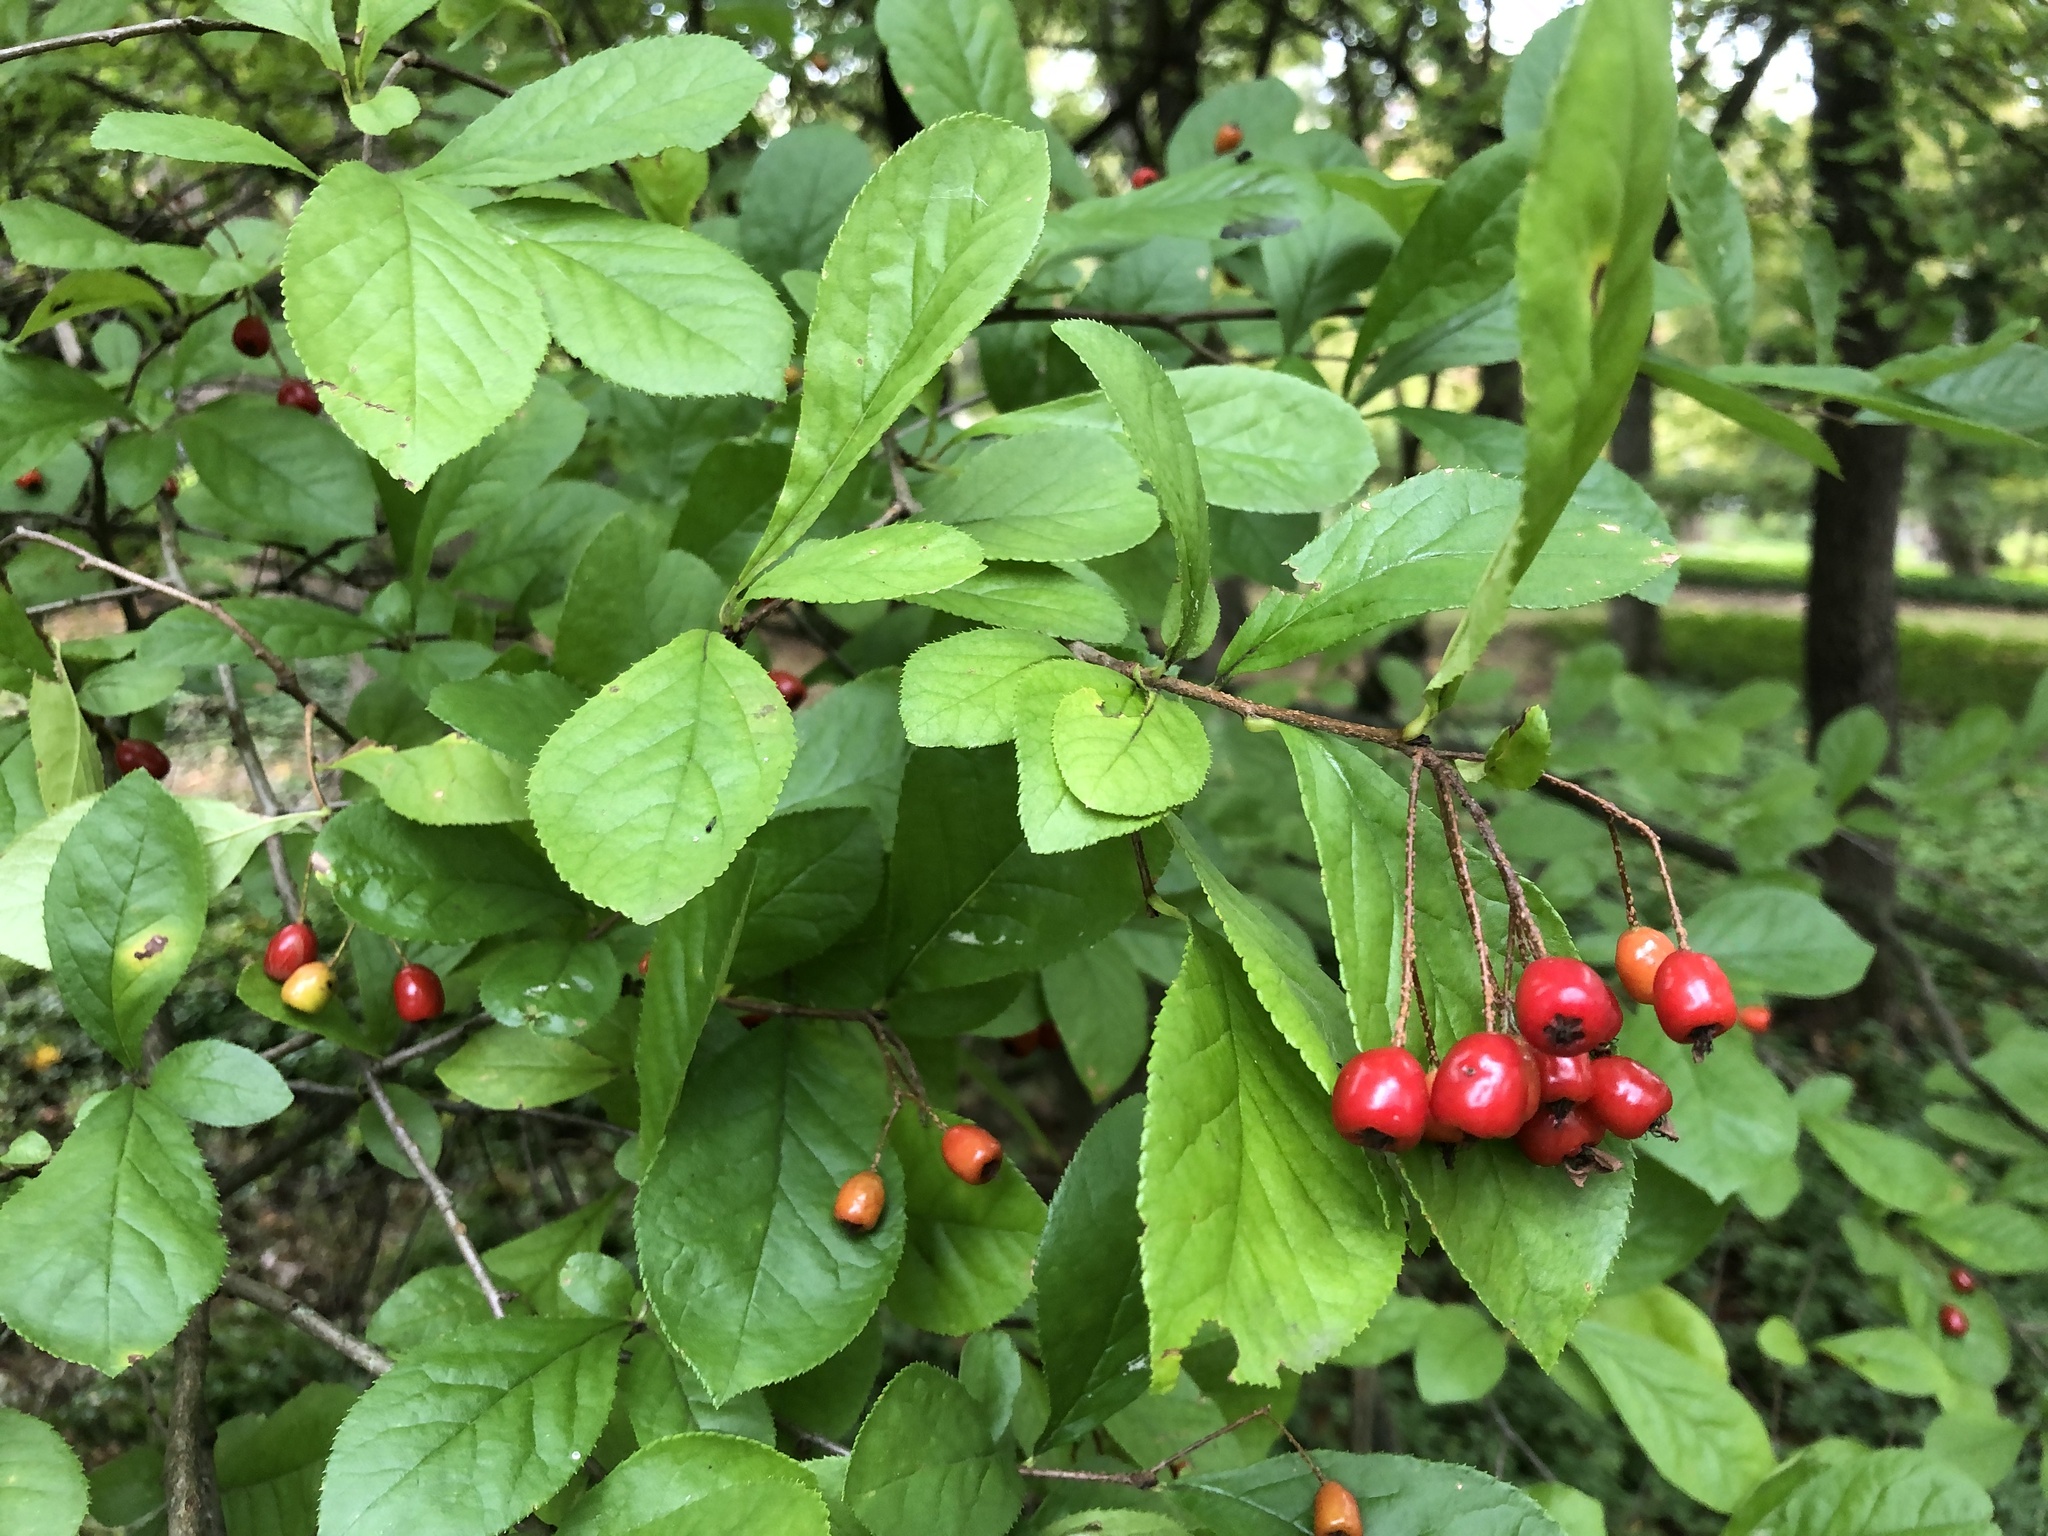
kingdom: Plantae
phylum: Tracheophyta
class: Magnoliopsida
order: Rosales
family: Rosaceae
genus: Pourthiaea
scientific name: Pourthiaea villosa
